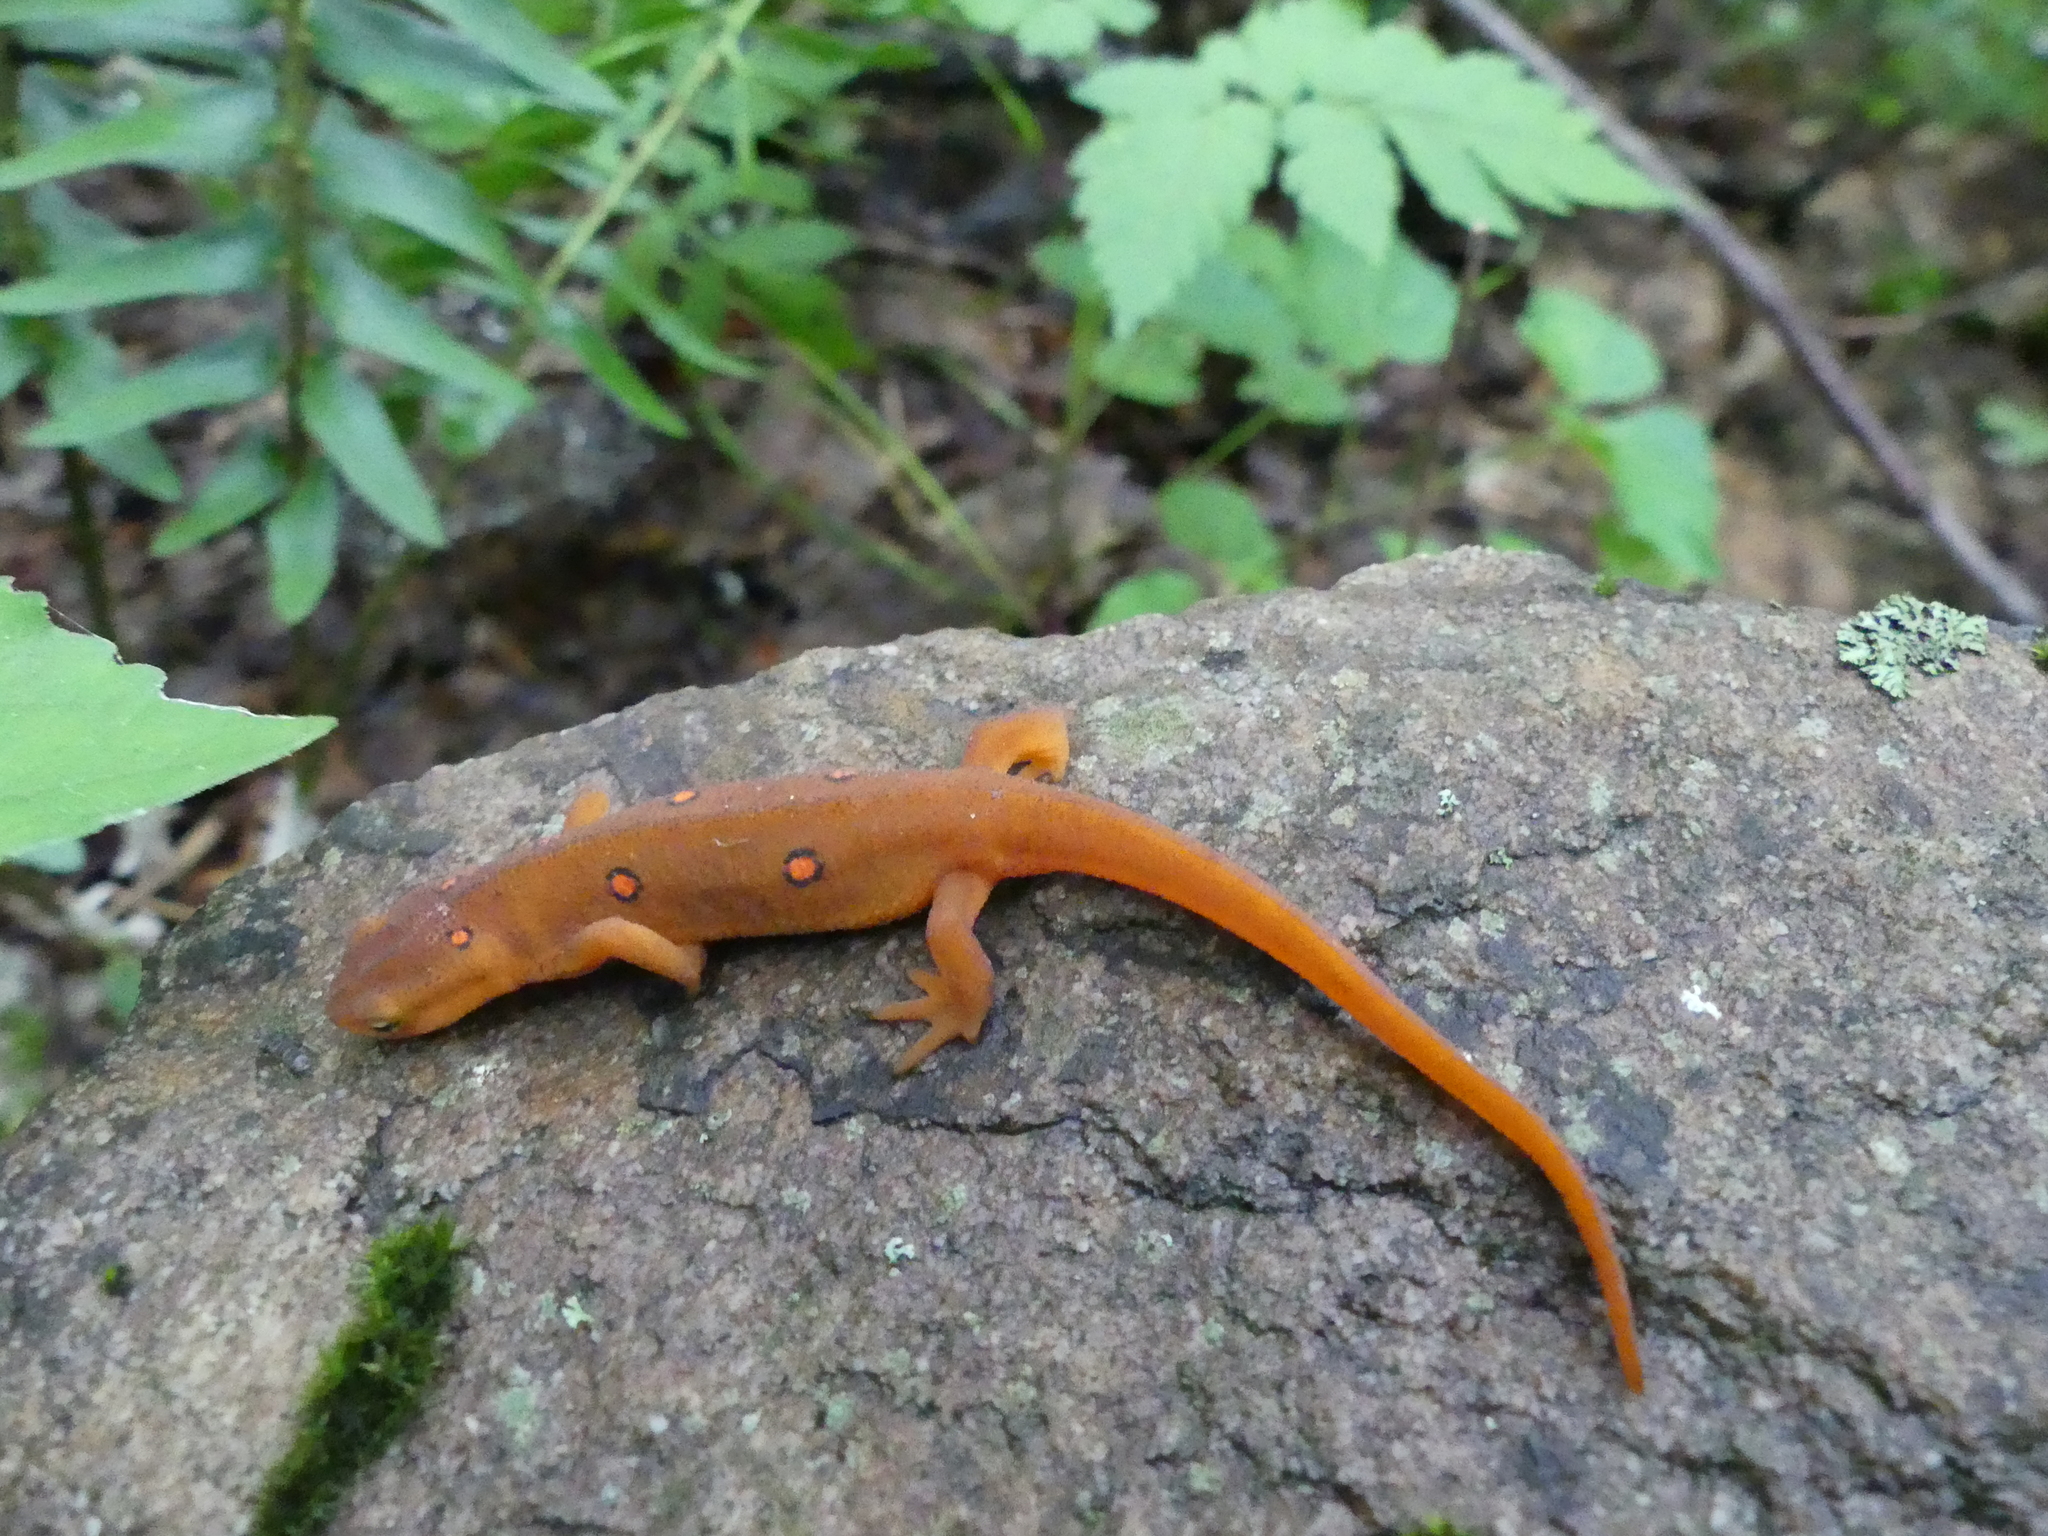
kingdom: Animalia
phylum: Chordata
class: Amphibia
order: Caudata
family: Salamandridae
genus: Notophthalmus
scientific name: Notophthalmus viridescens
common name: Eastern newt
